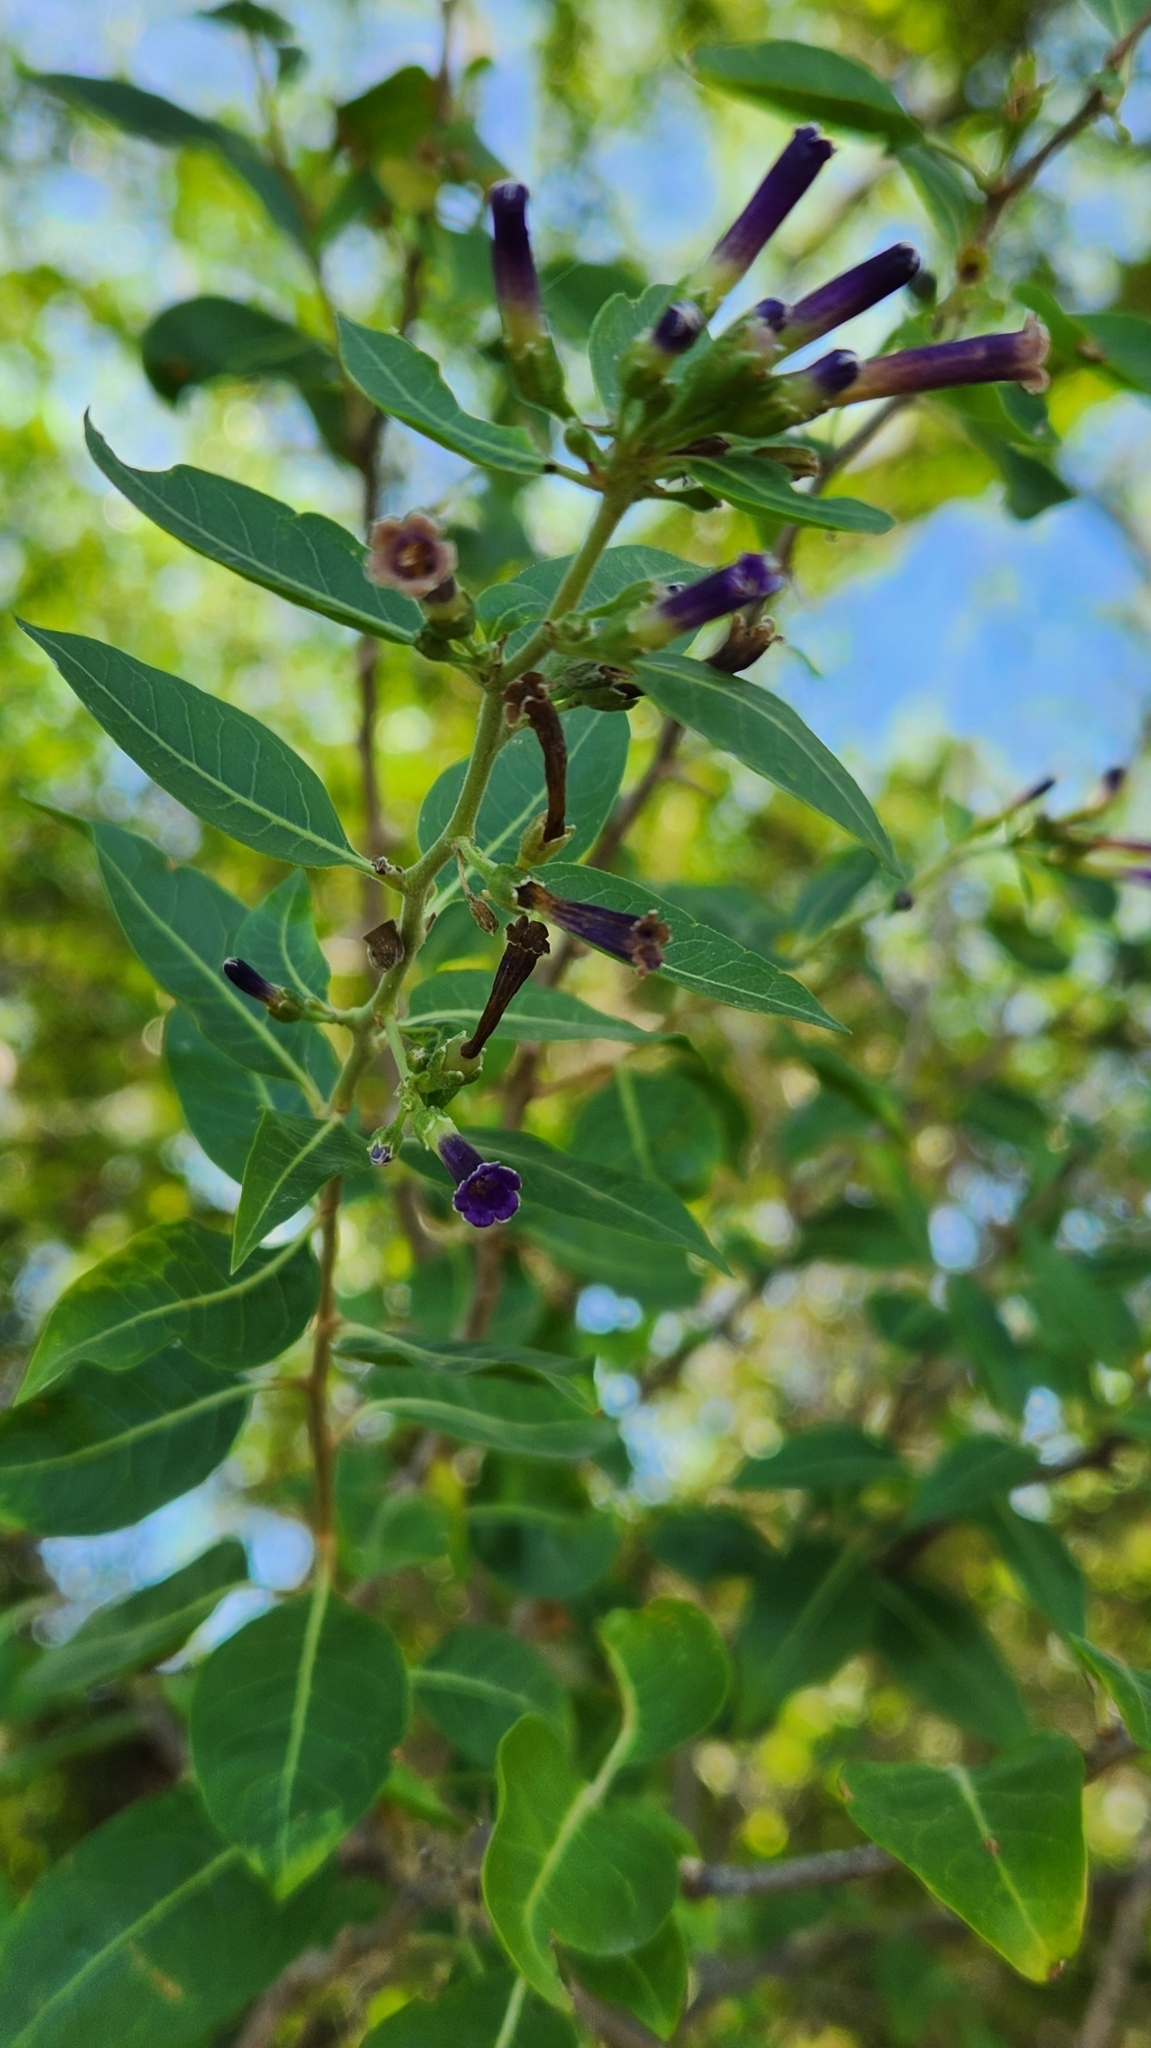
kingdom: Plantae
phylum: Tracheophyta
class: Magnoliopsida
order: Solanales
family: Solanaceae
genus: Lycium
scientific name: Lycium cestroides
